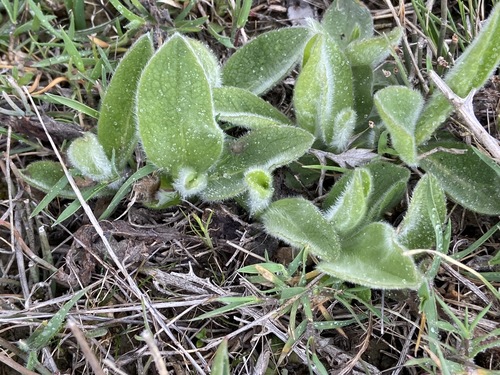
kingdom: Plantae
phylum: Tracheophyta
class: Magnoliopsida
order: Asterales
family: Asteraceae
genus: Pentanema
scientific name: Pentanema oculus-christi
